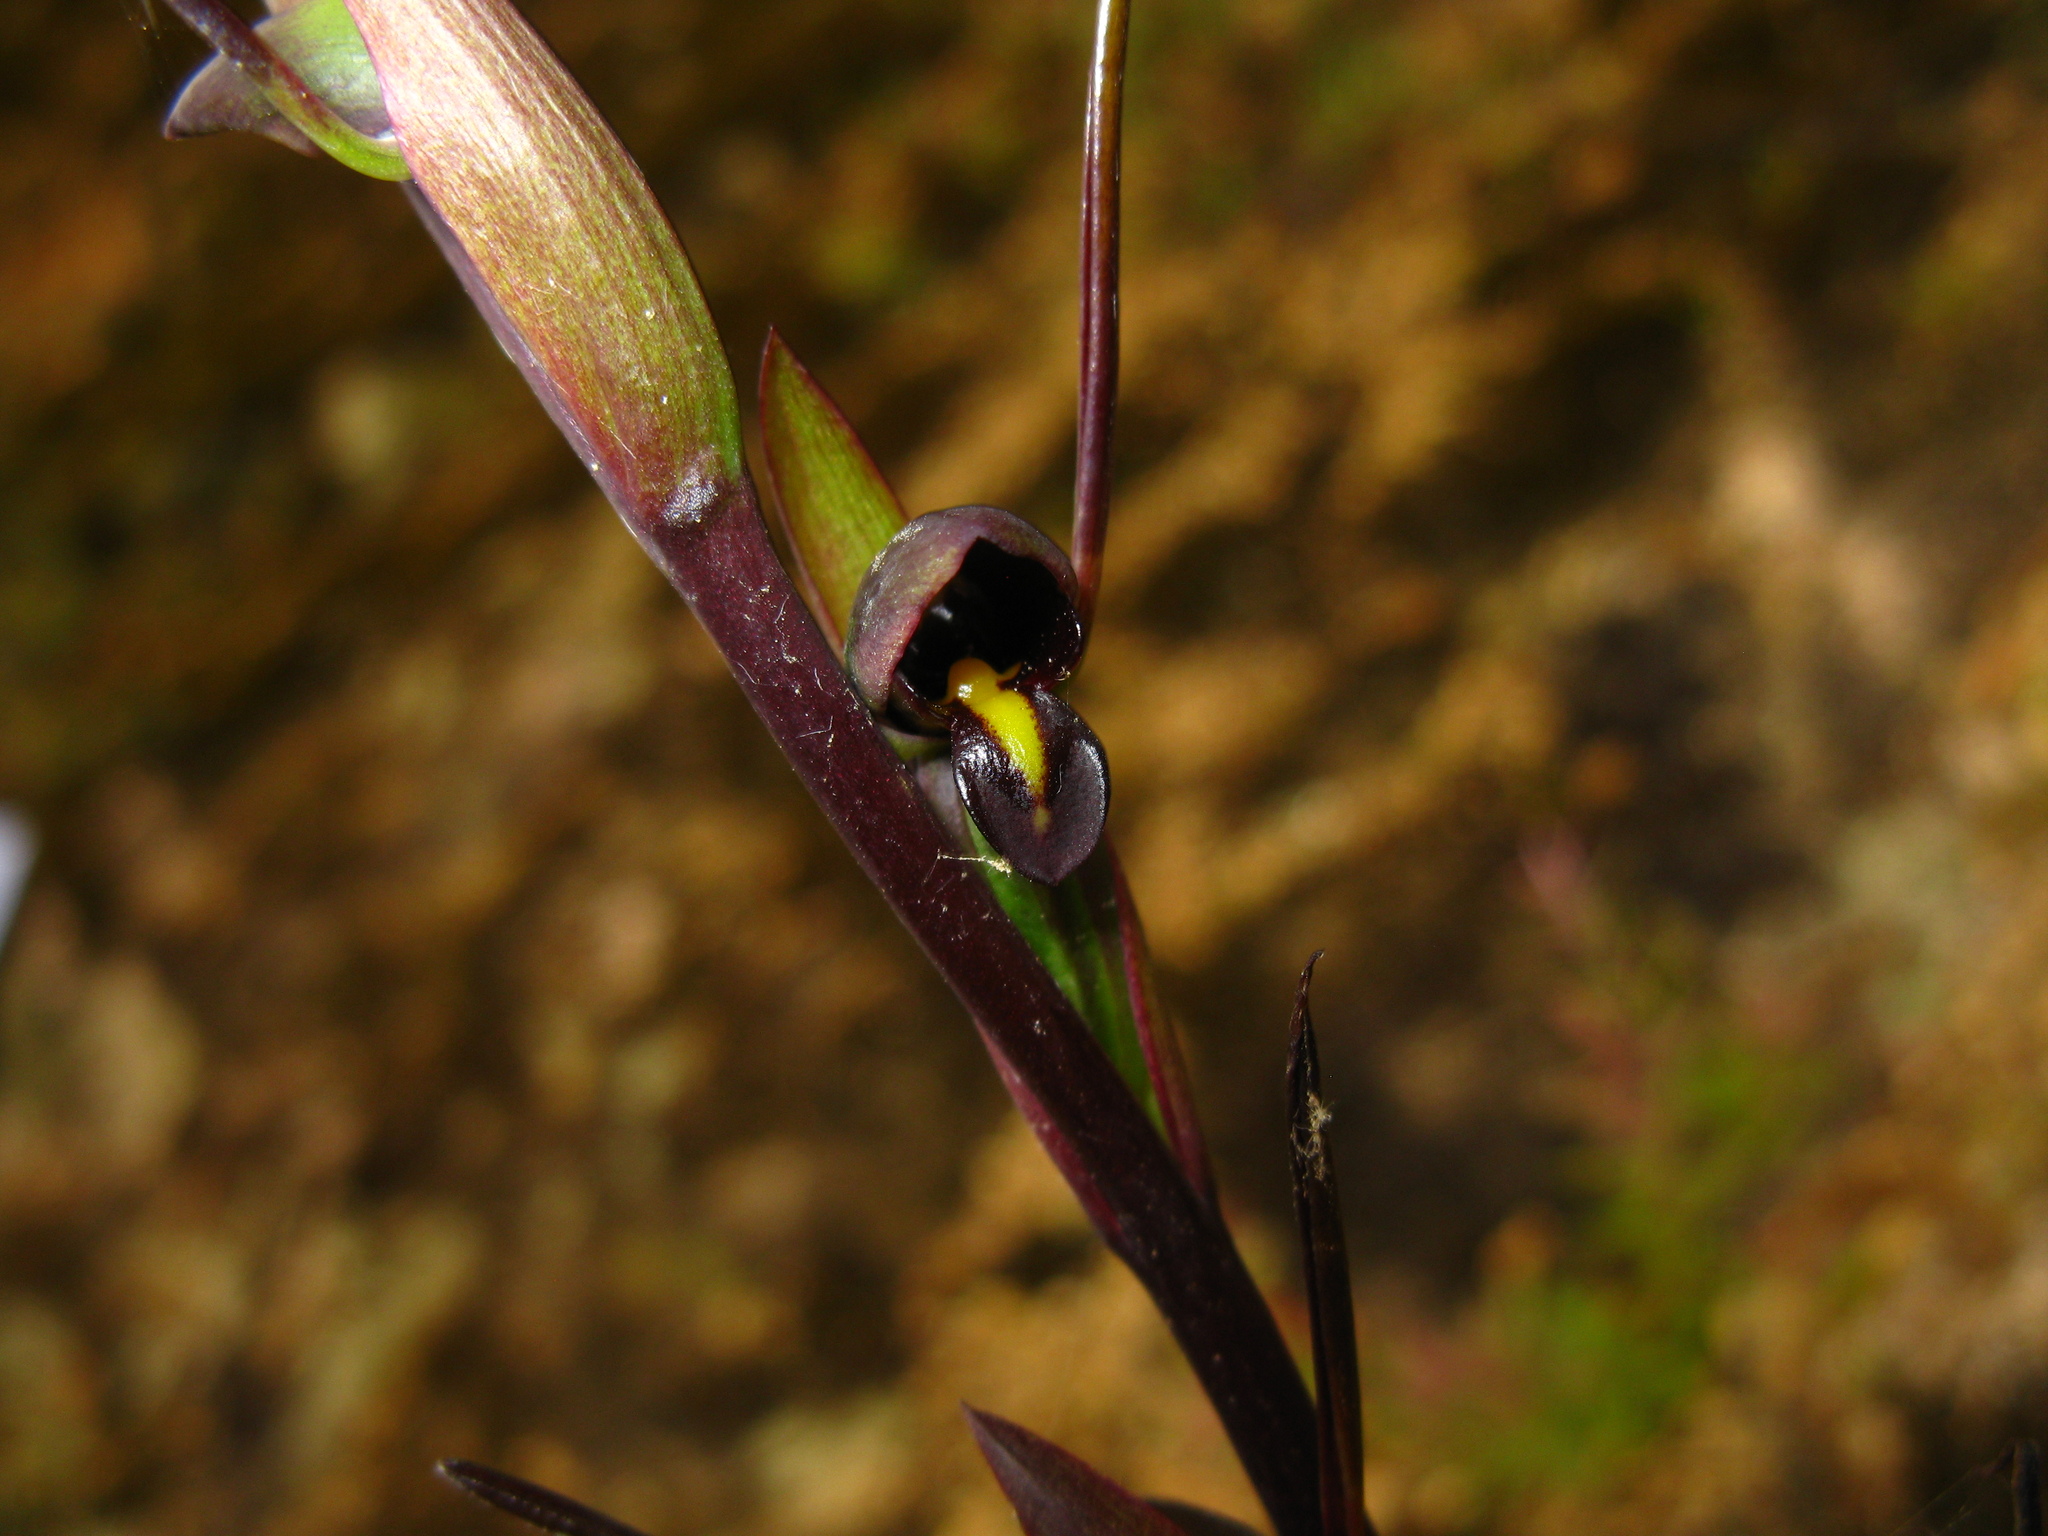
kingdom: Plantae
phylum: Tracheophyta
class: Liliopsida
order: Asparagales
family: Orchidaceae
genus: Orthoceras
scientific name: Orthoceras novae-zeelandiae
